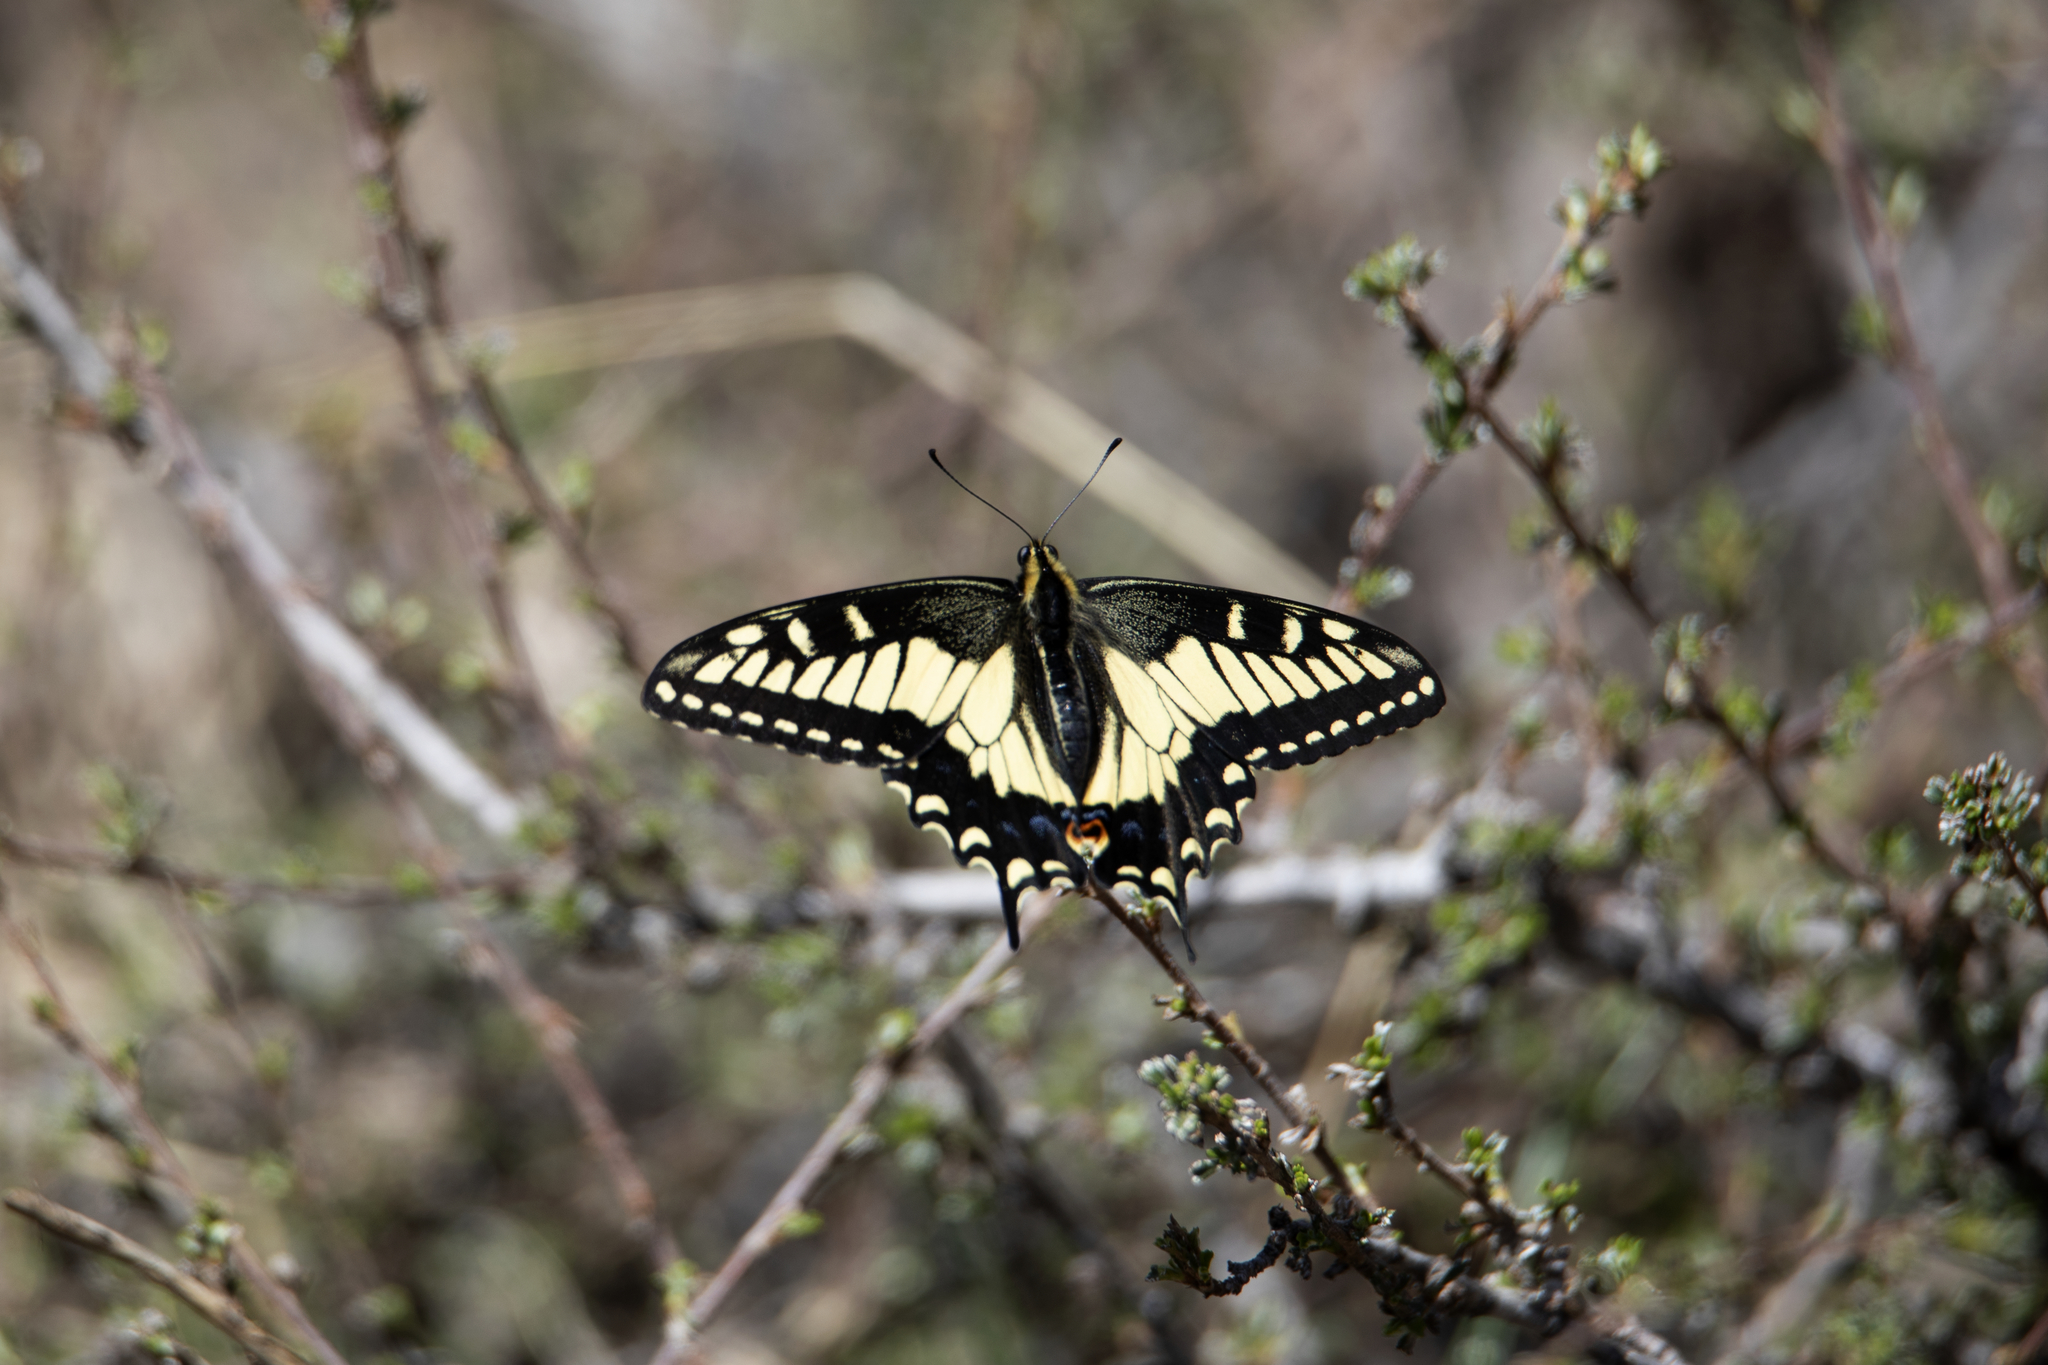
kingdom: Animalia
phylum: Arthropoda
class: Insecta
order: Lepidoptera
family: Papilionidae
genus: Papilio
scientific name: Papilio zelicaon
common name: Anise swallowtail
